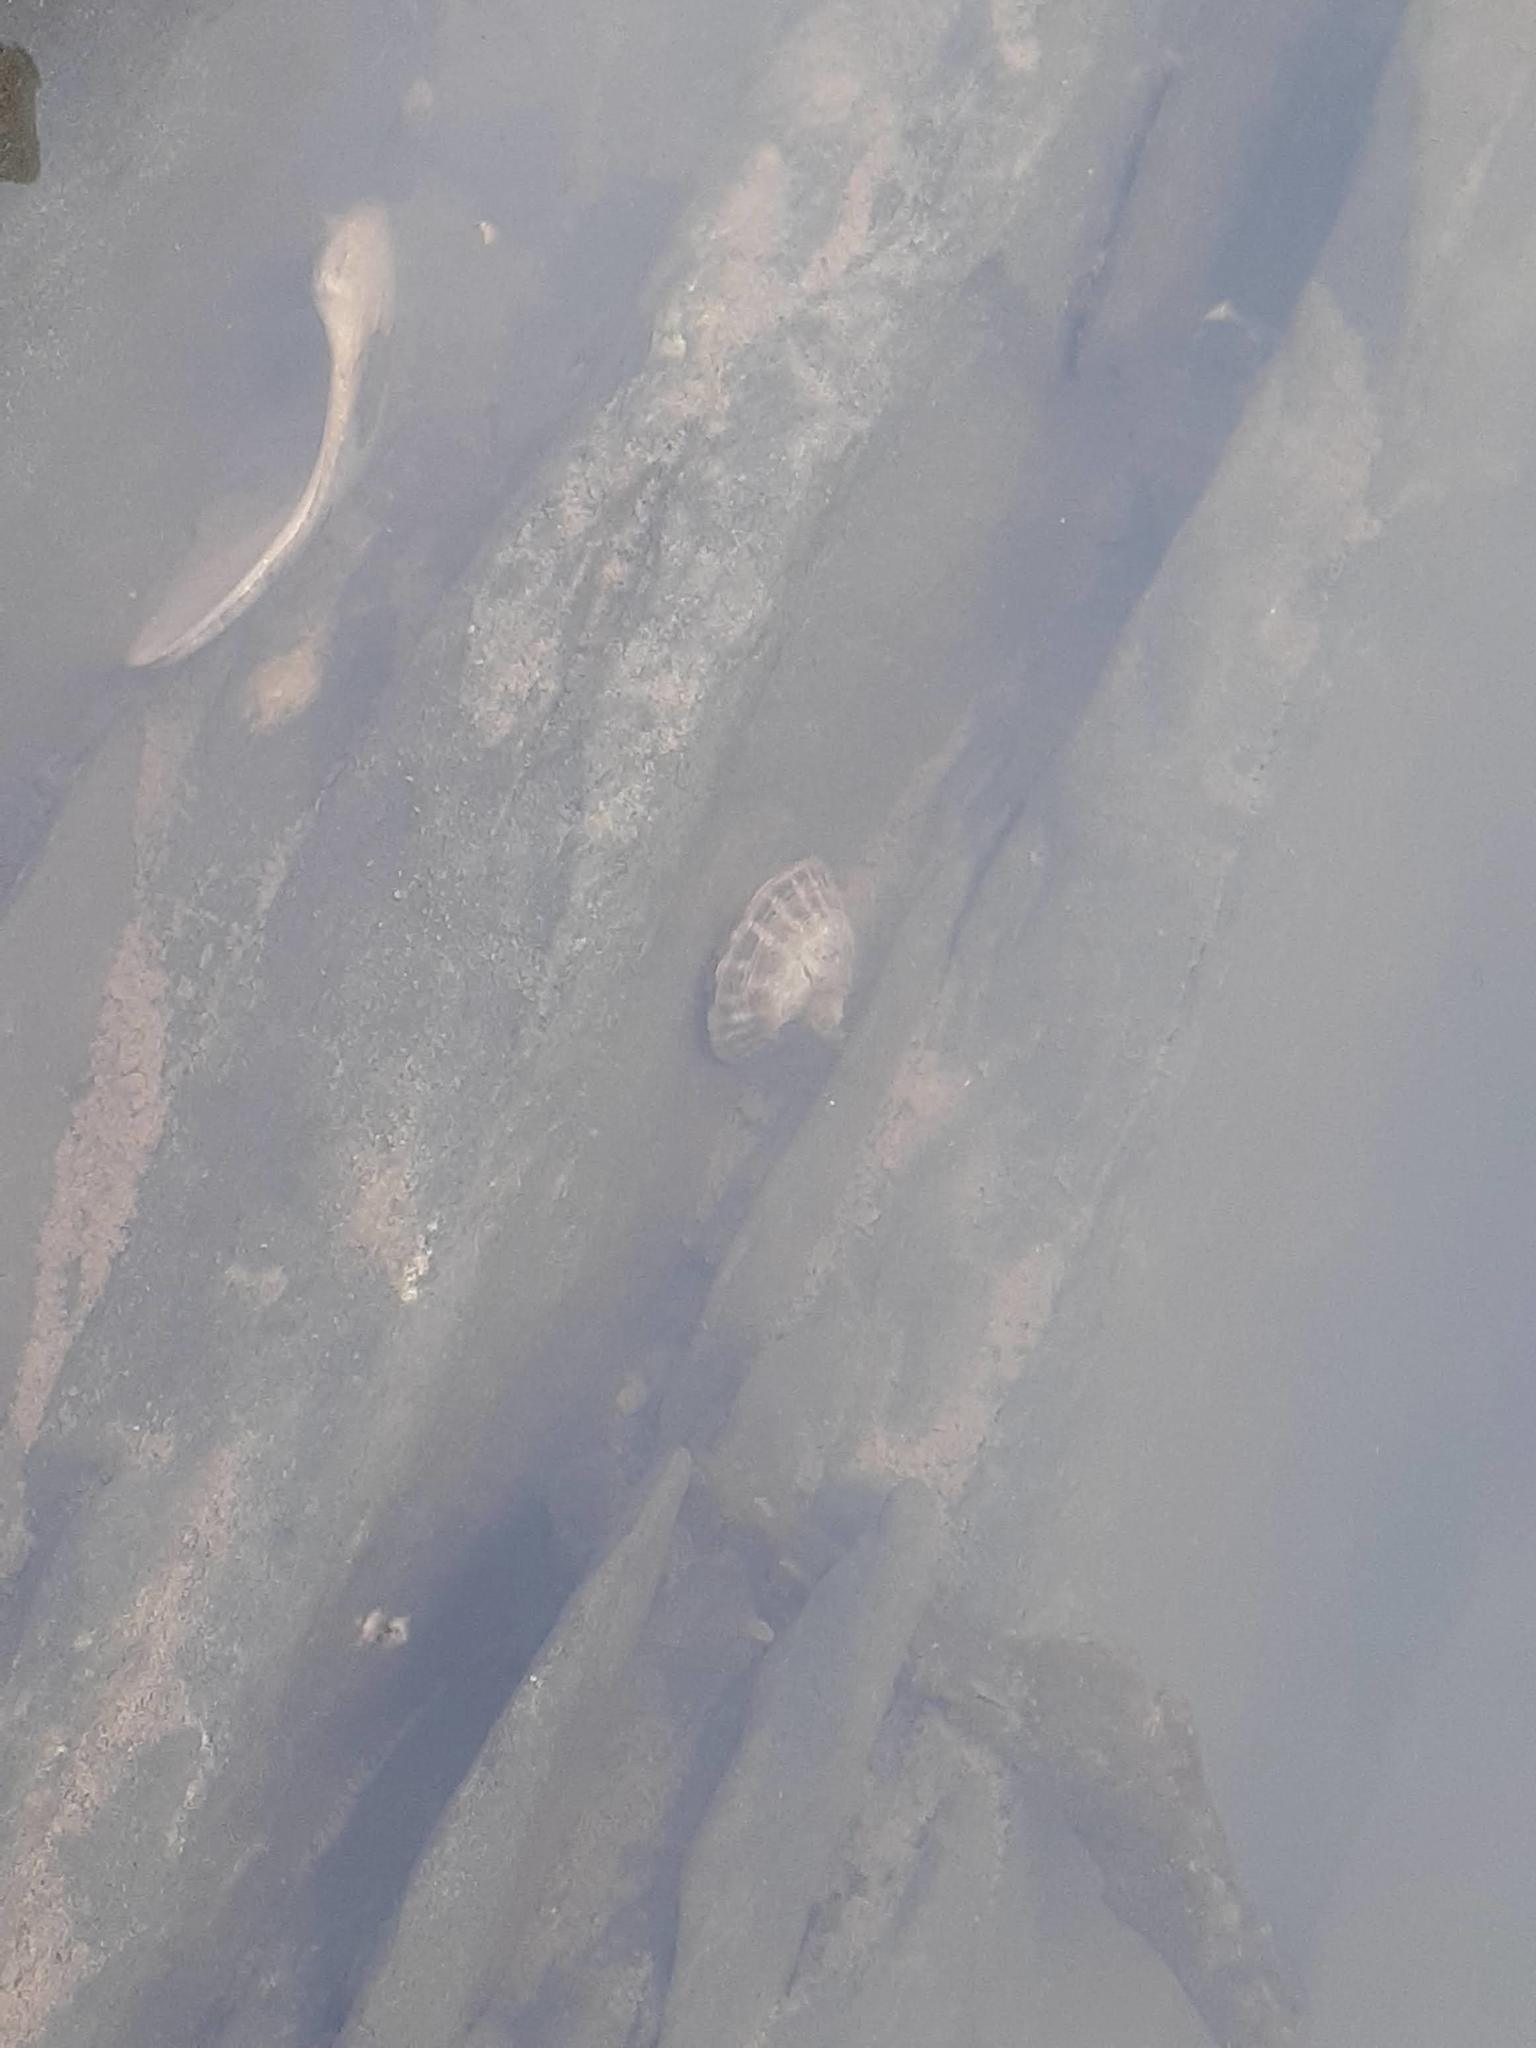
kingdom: Animalia
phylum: Mollusca
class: Gastropoda
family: Lottiidae
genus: Testudinalia
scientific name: Testudinalia testudinalis
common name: Common tortoiseshell limpet
